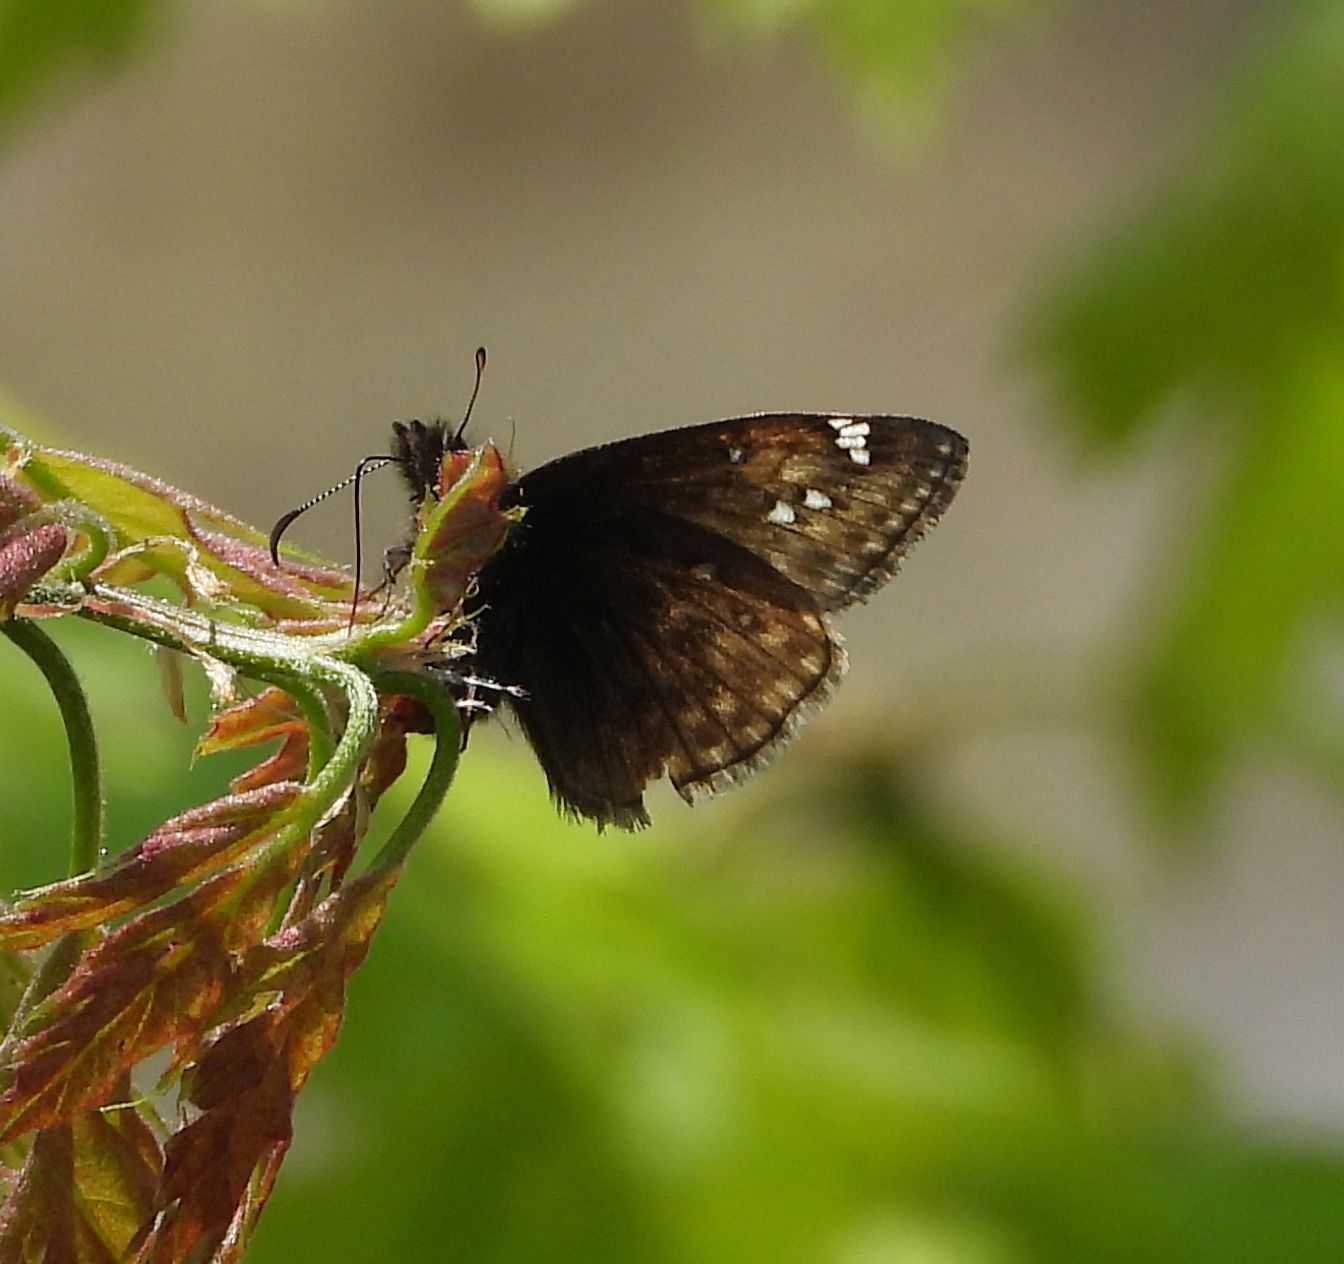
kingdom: Animalia
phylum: Arthropoda
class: Insecta
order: Lepidoptera
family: Hesperiidae
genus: Erynnis
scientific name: Erynnis juvenalis
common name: Juvenal's duskywing
